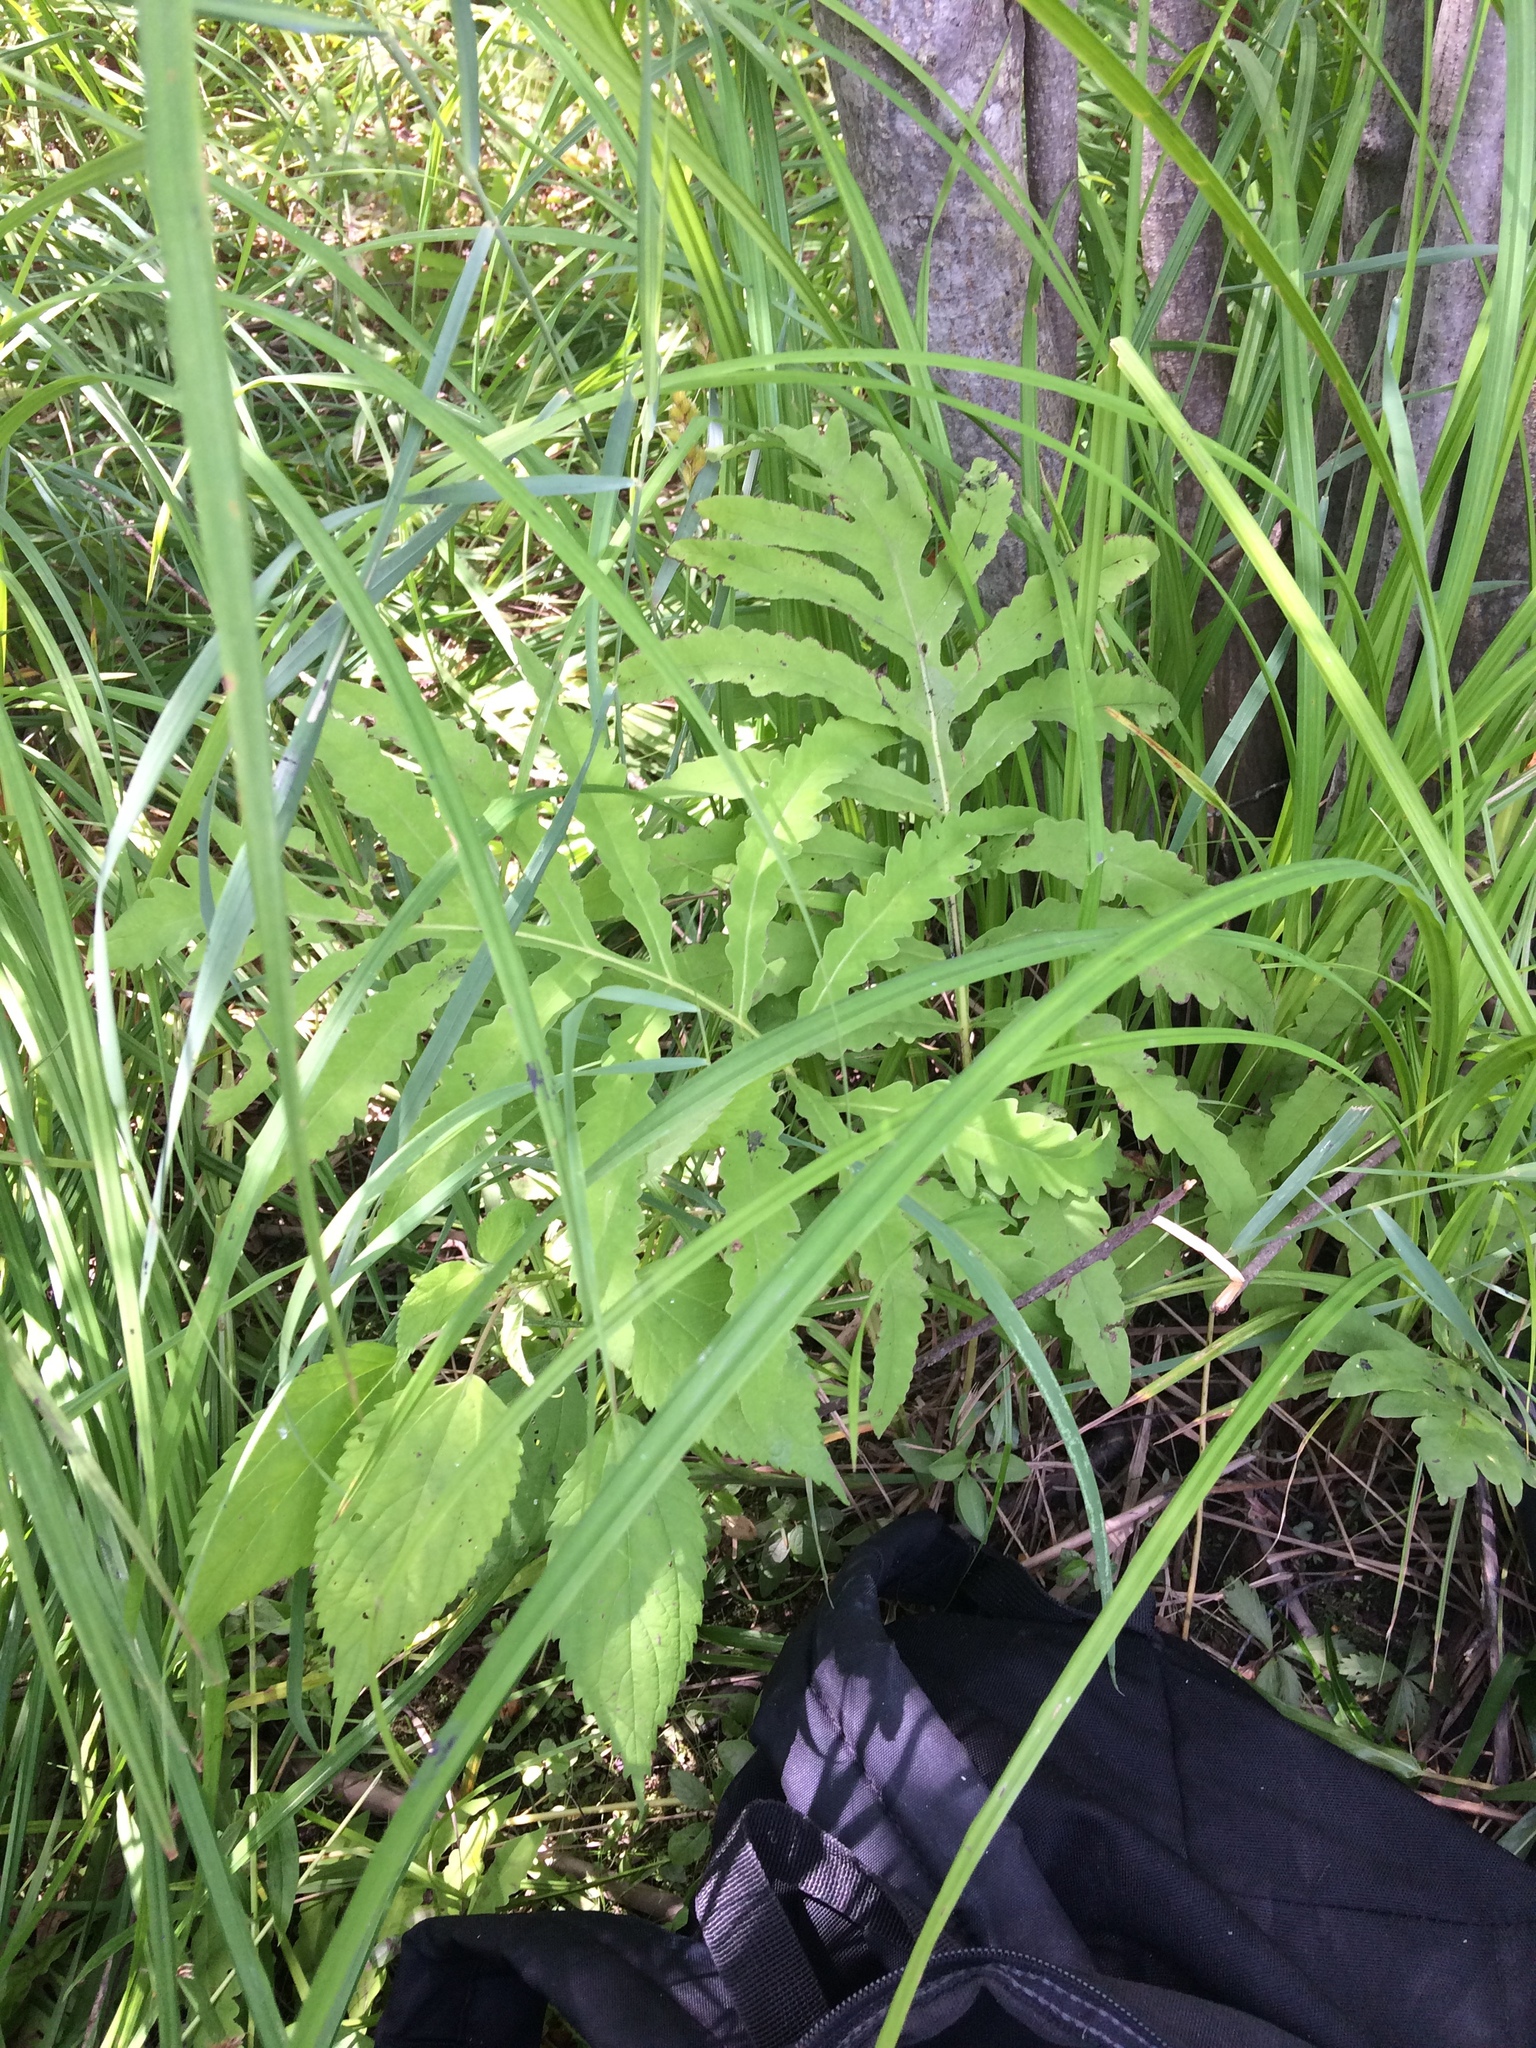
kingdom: Plantae
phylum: Tracheophyta
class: Polypodiopsida
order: Polypodiales
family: Onocleaceae
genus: Onoclea
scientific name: Onoclea sensibilis
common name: Sensitive fern
